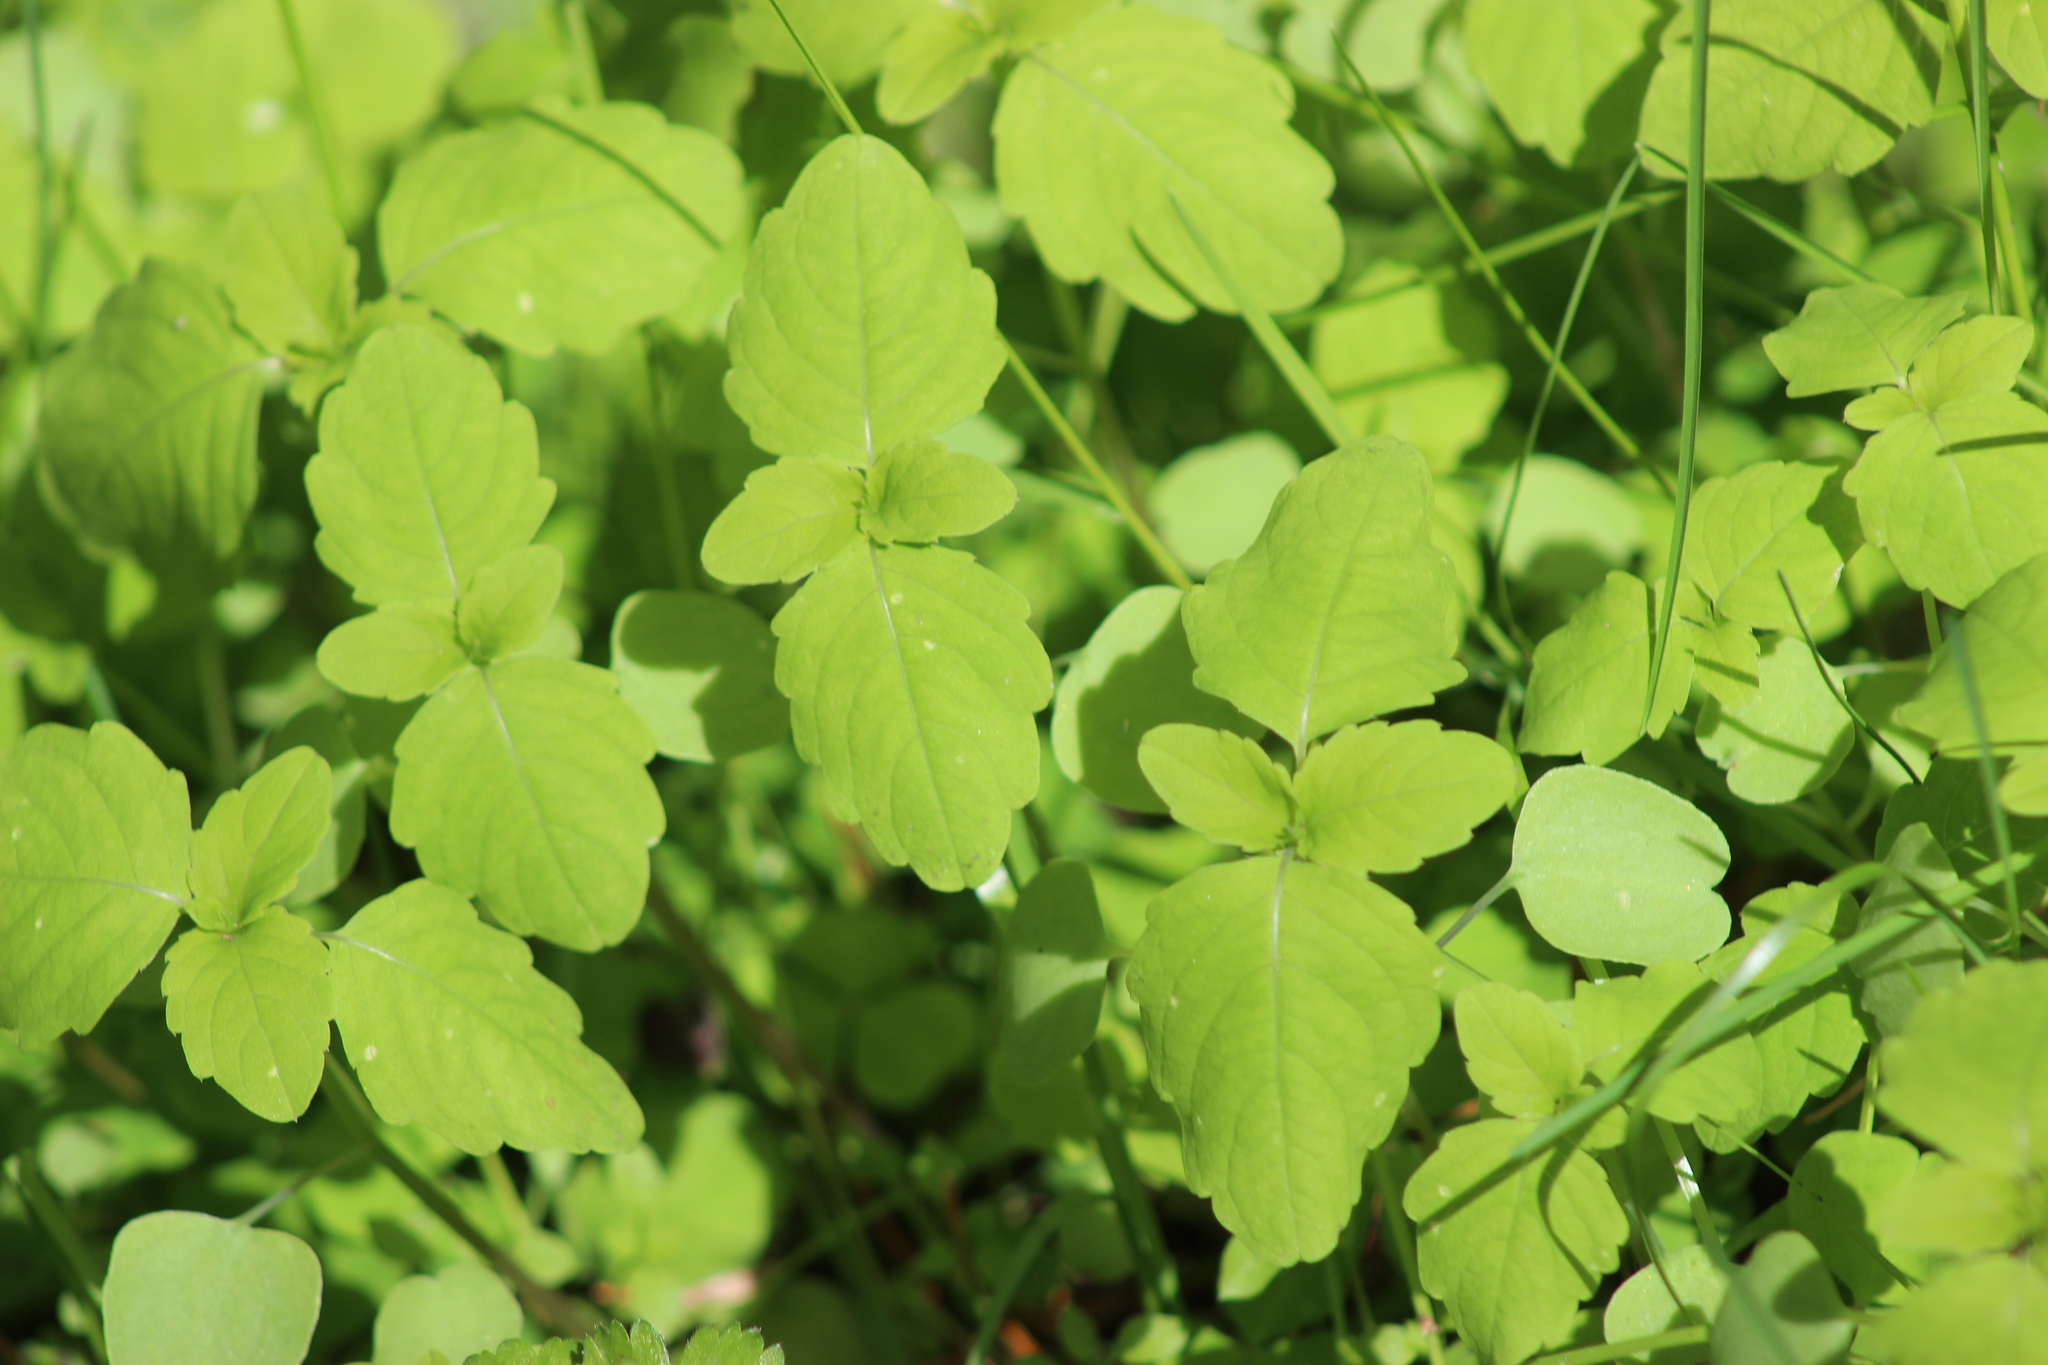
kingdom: Plantae
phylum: Tracheophyta
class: Magnoliopsida
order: Ericales
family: Balsaminaceae
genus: Impatiens
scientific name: Impatiens noli-tangere
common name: Touch-me-not balsam
